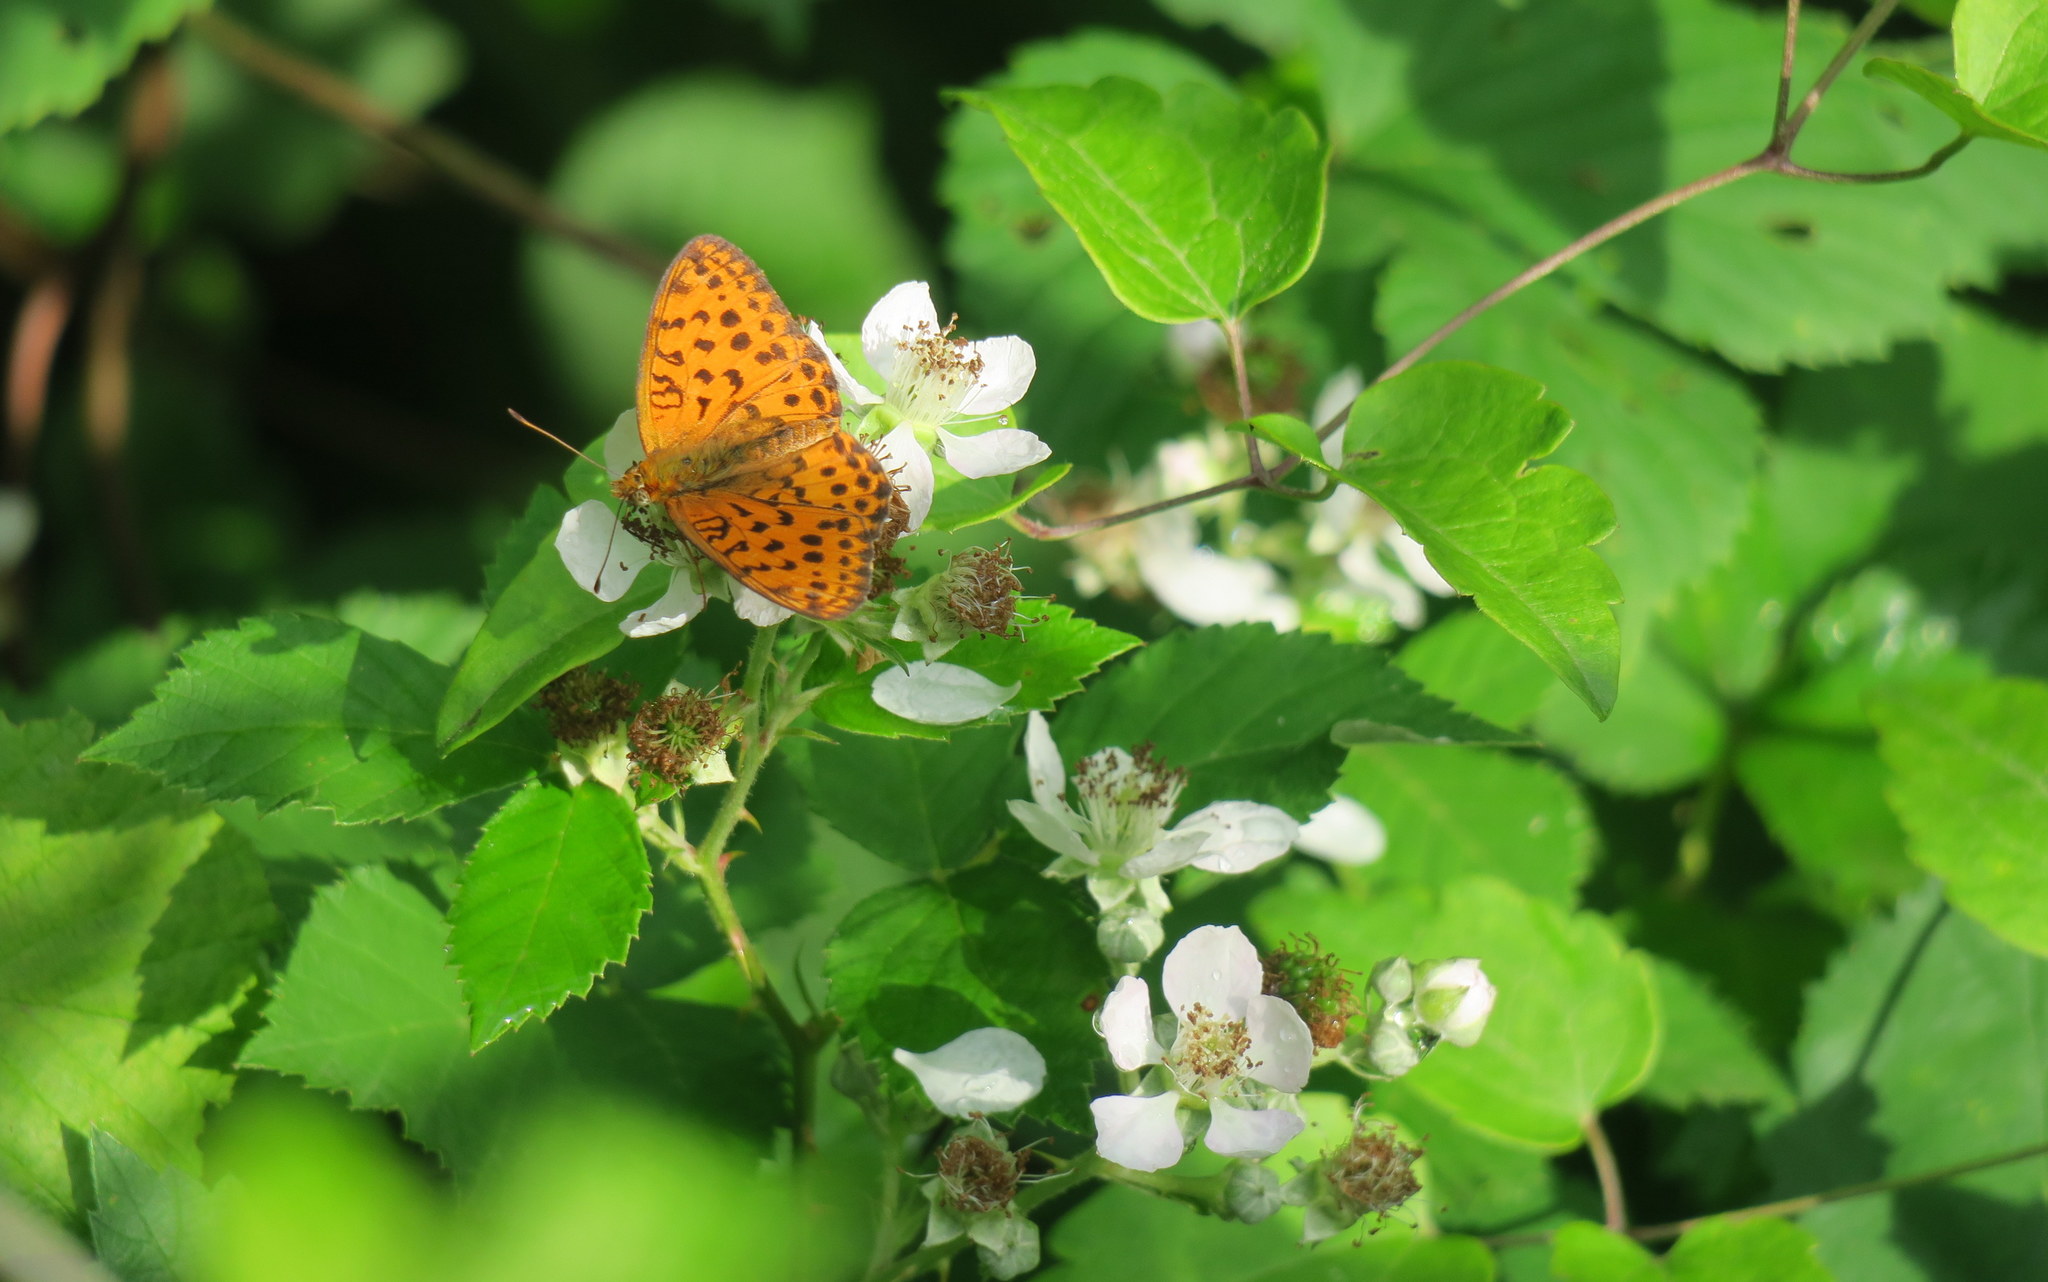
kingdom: Animalia
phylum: Arthropoda
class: Insecta
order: Lepidoptera
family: Nymphalidae
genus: Brenthis
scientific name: Brenthis daphne
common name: Marbled fritillary
